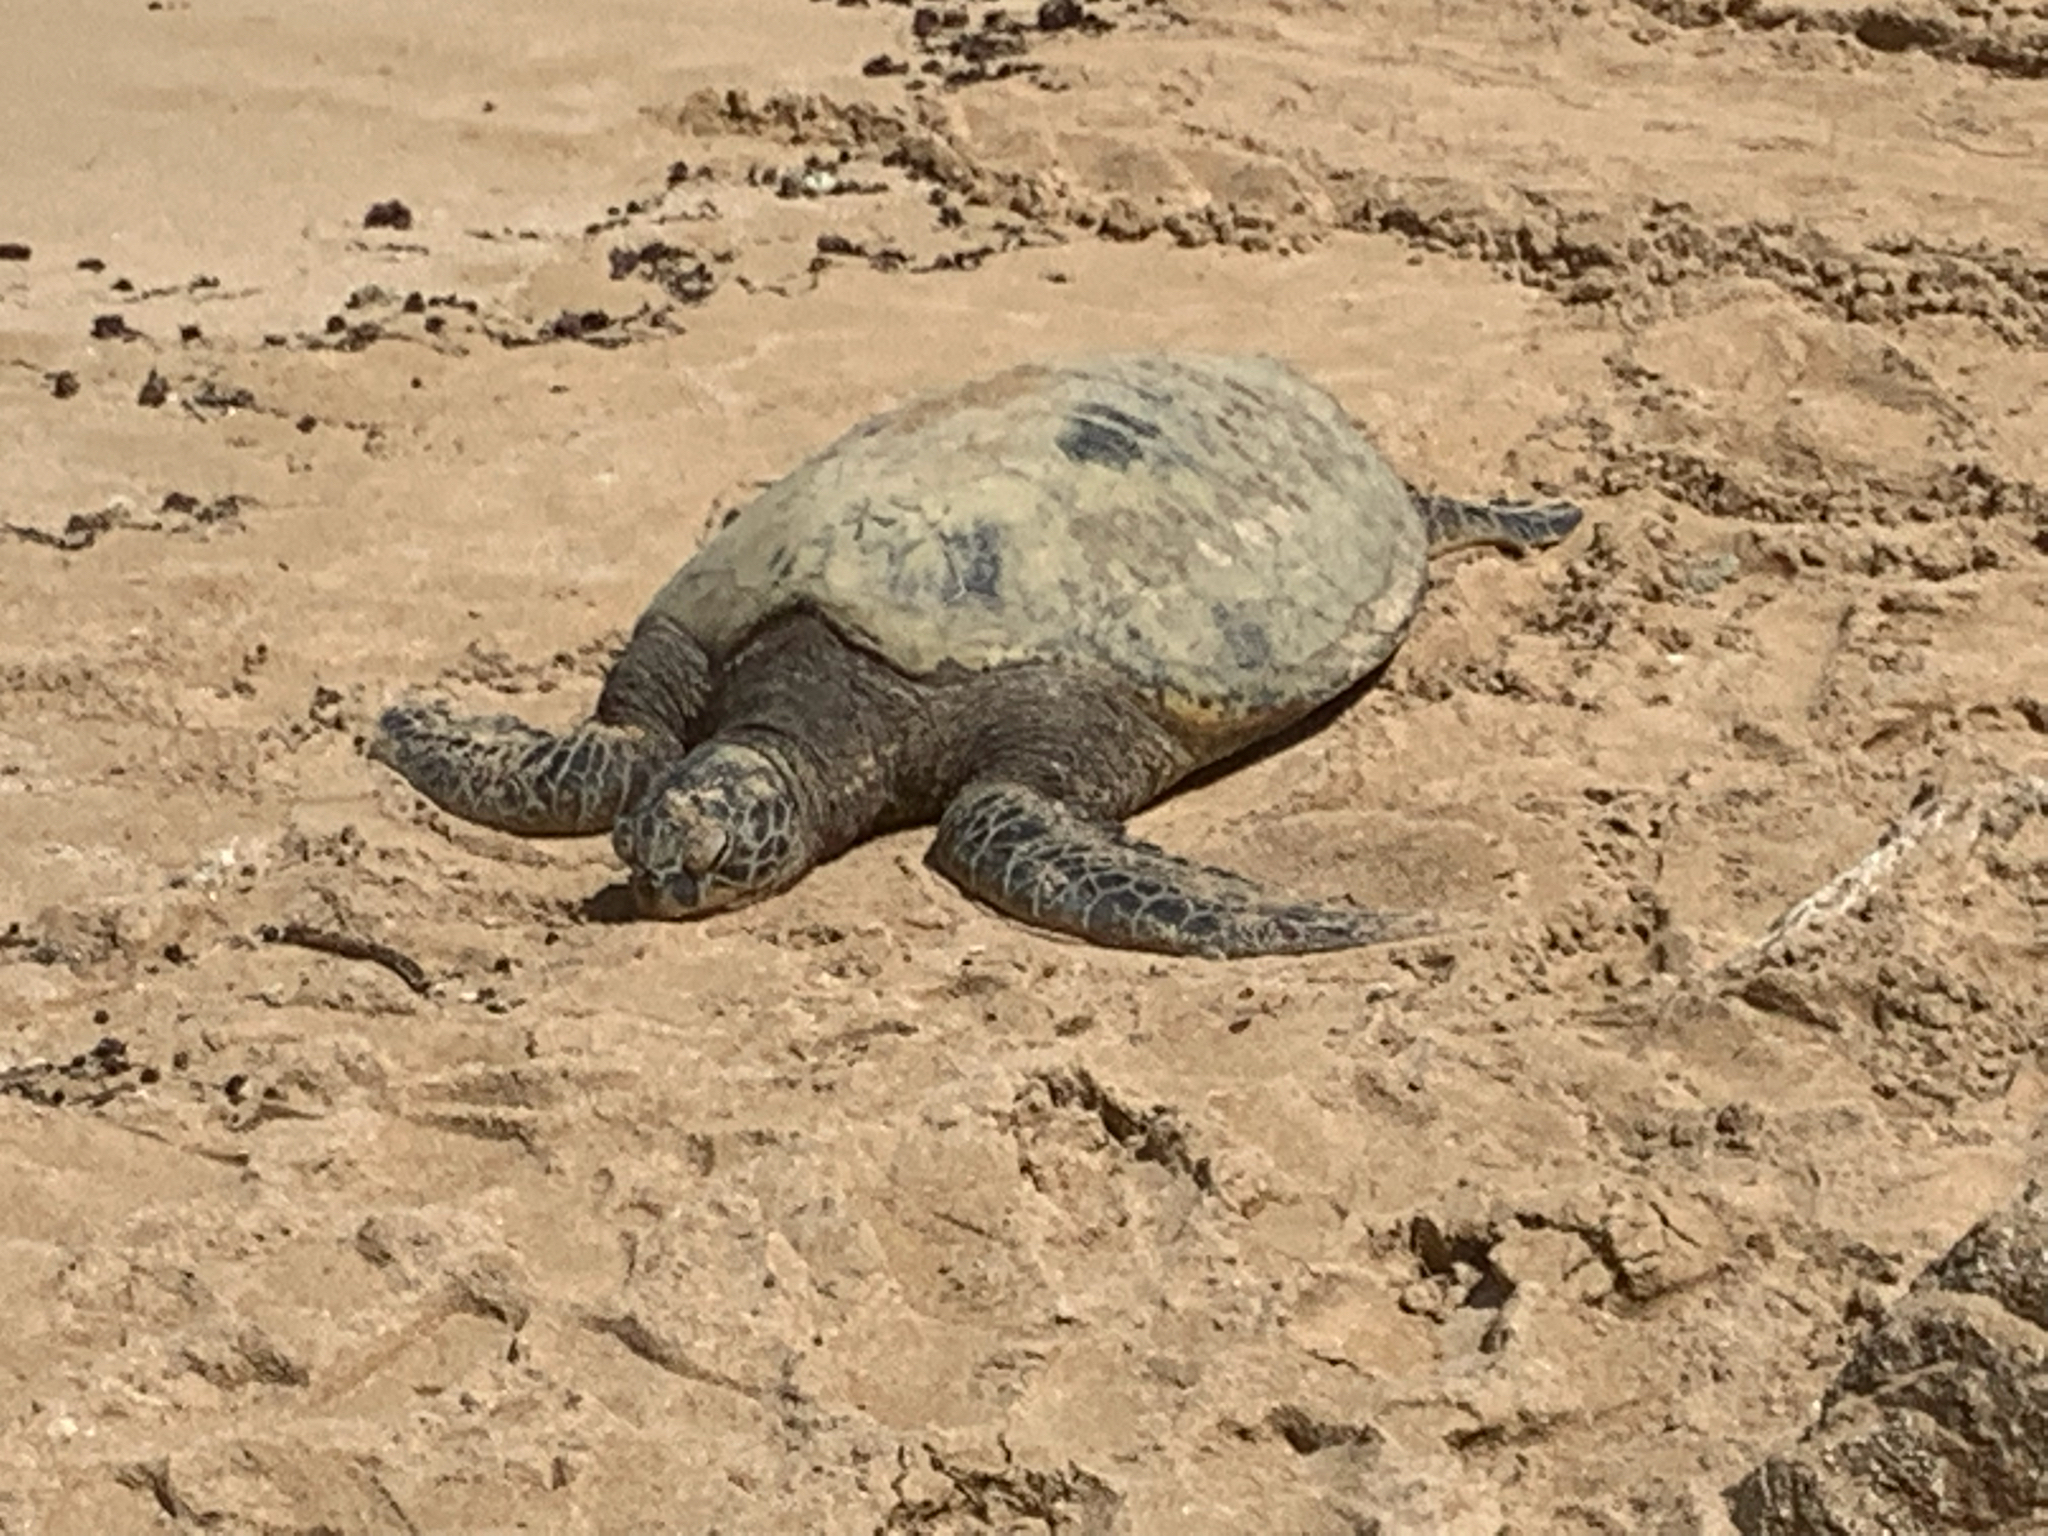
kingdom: Animalia
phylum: Chordata
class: Testudines
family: Cheloniidae
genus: Chelonia
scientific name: Chelonia mydas
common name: Green turtle
